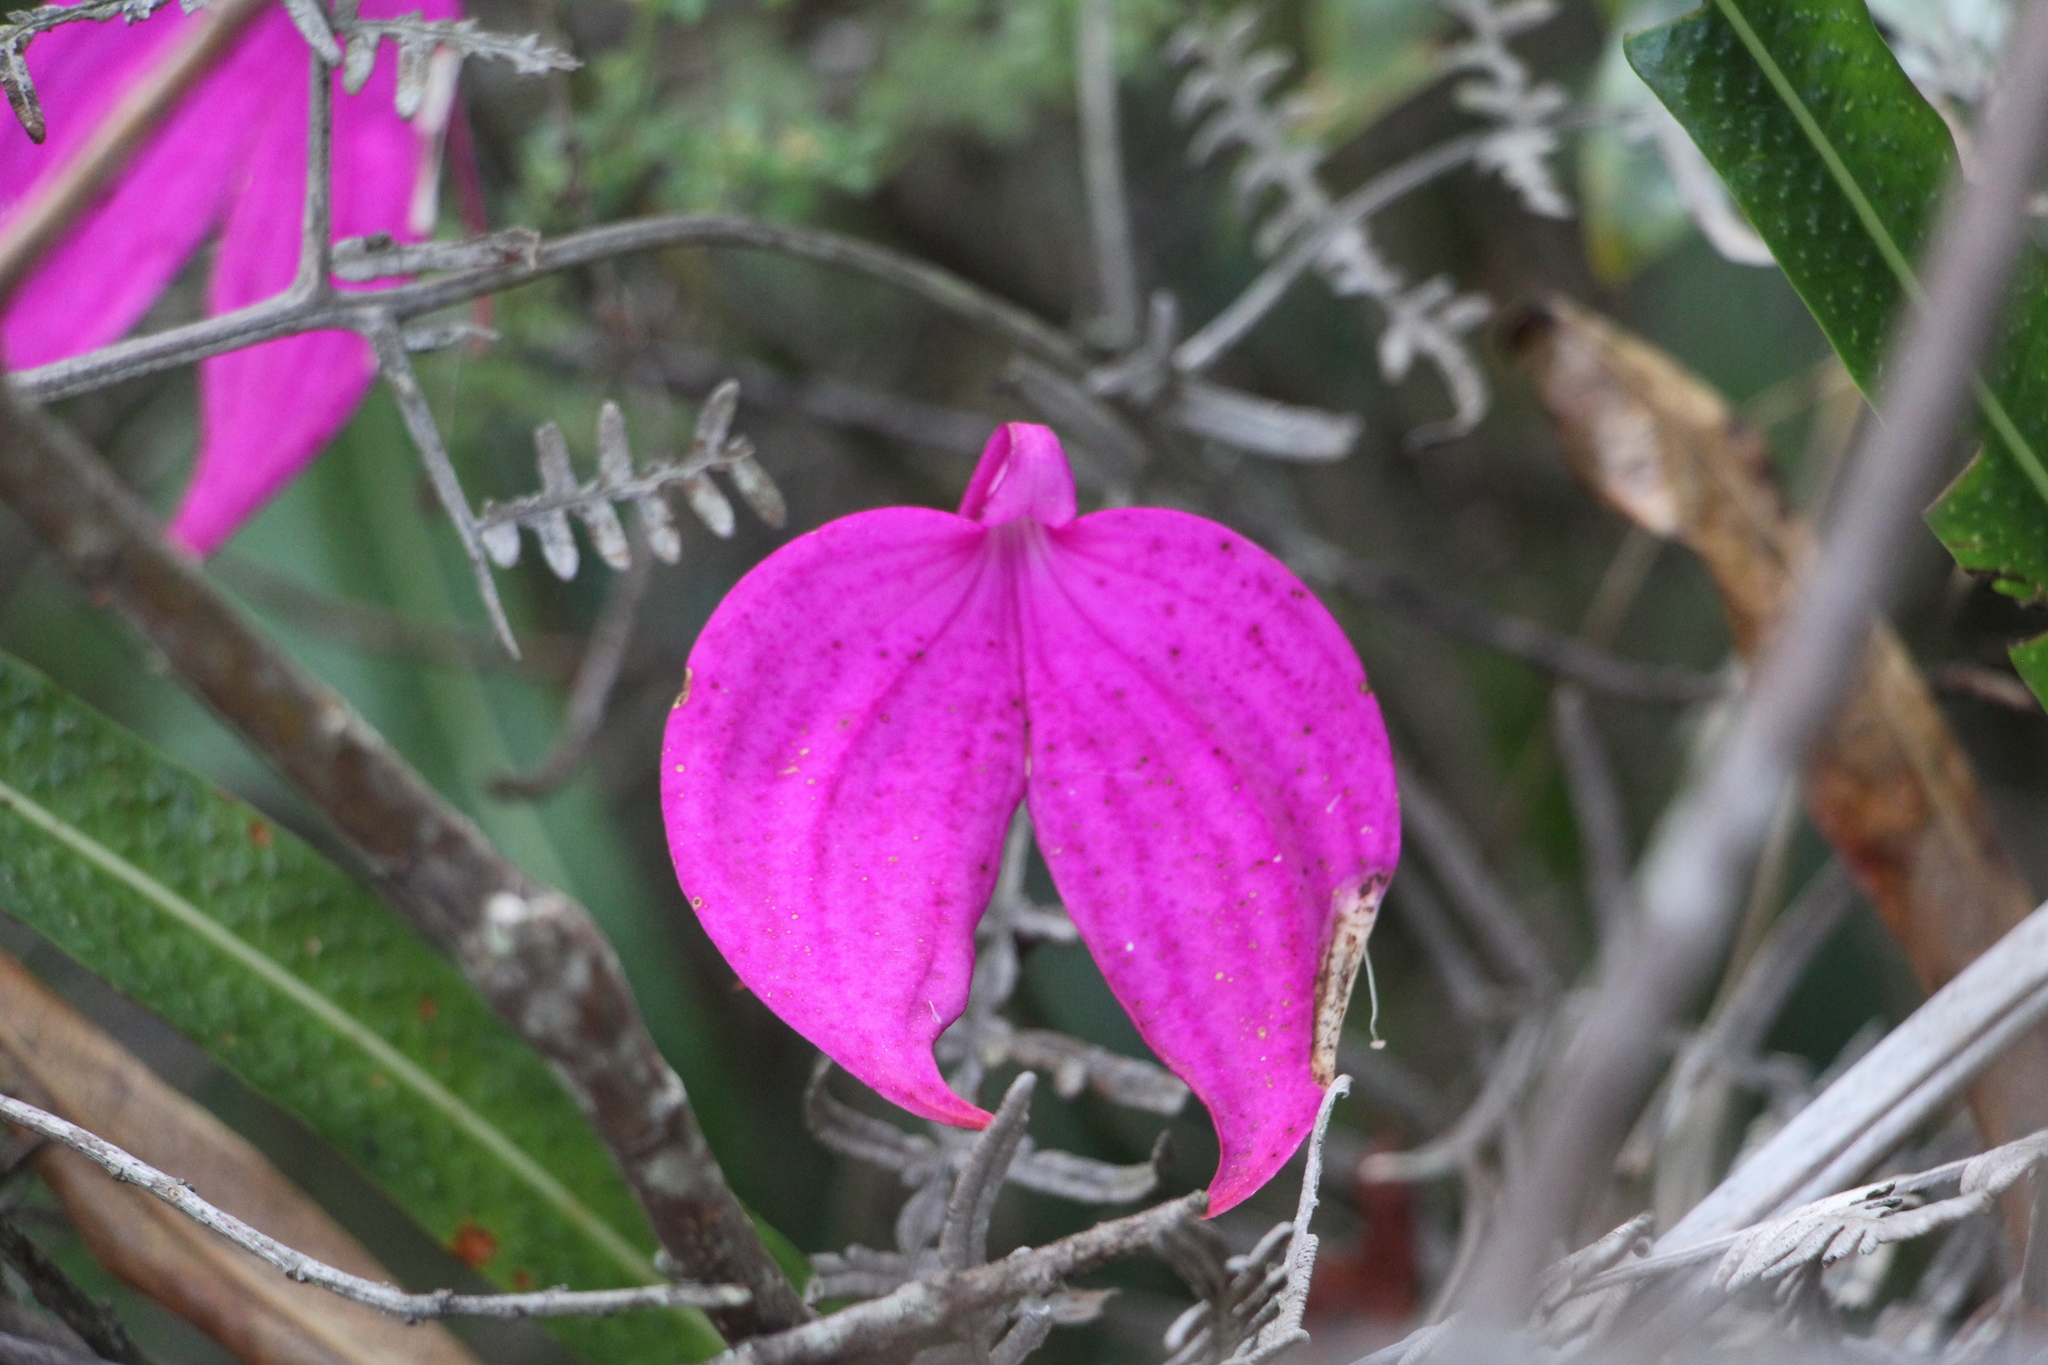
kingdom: Plantae
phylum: Tracheophyta
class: Liliopsida
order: Asparagales
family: Orchidaceae
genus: Masdevallia
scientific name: Masdevallia coccinea
